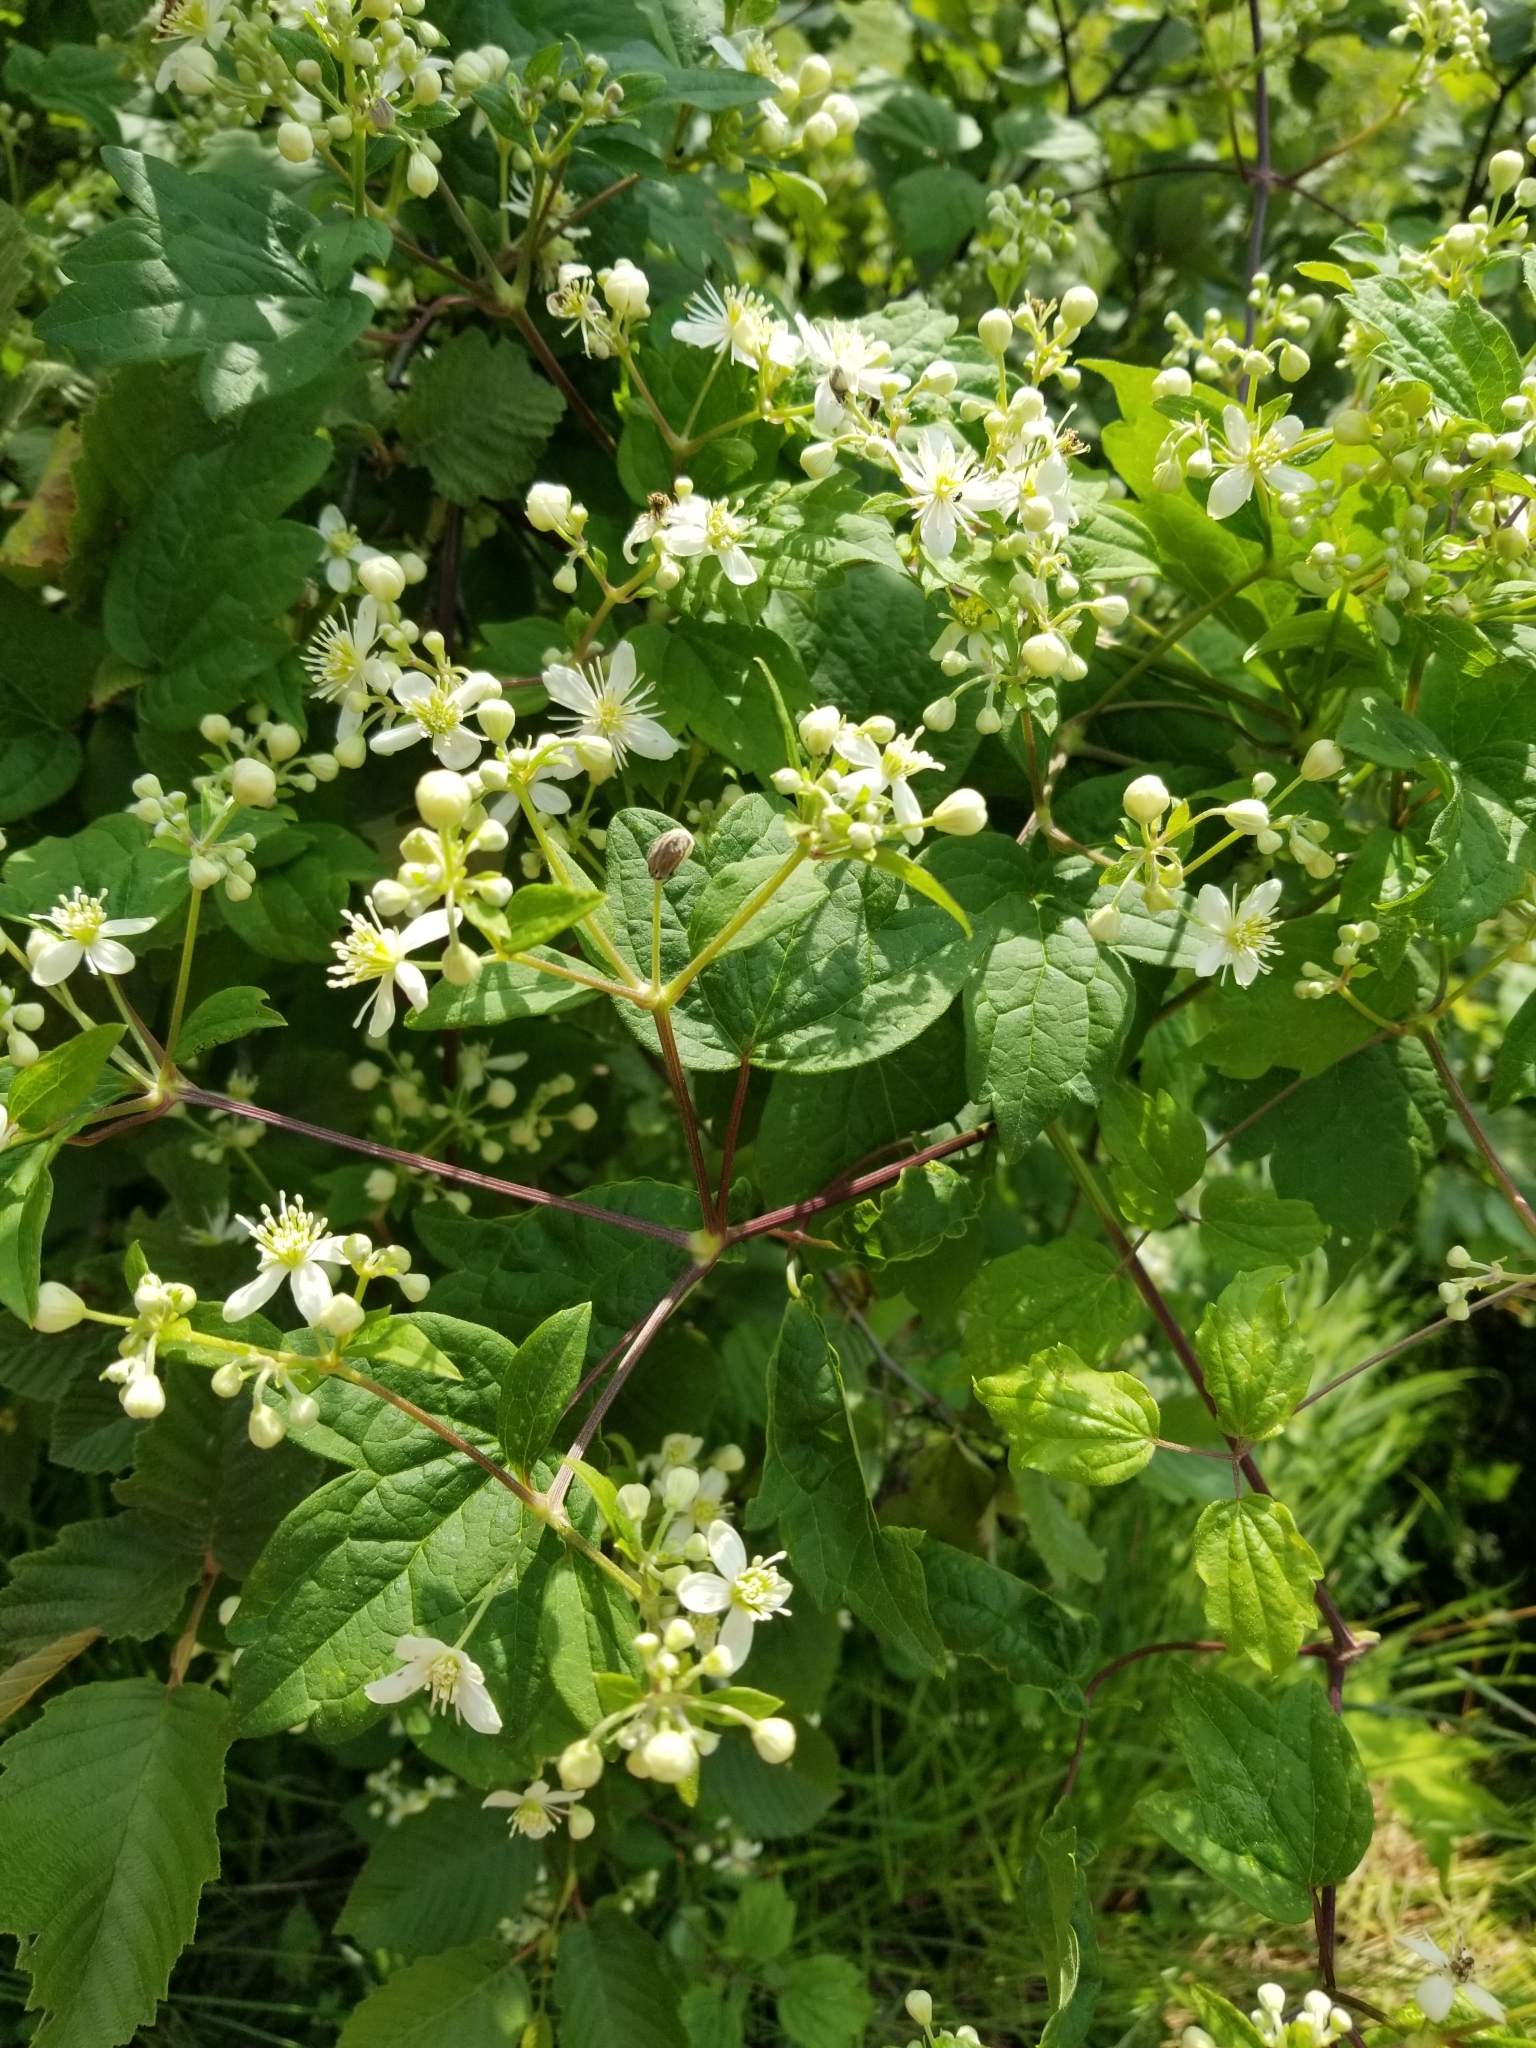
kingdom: Plantae
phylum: Tracheophyta
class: Magnoliopsida
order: Ranunculales
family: Ranunculaceae
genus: Clematis
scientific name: Clematis virginiana
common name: Virgin's-bower
